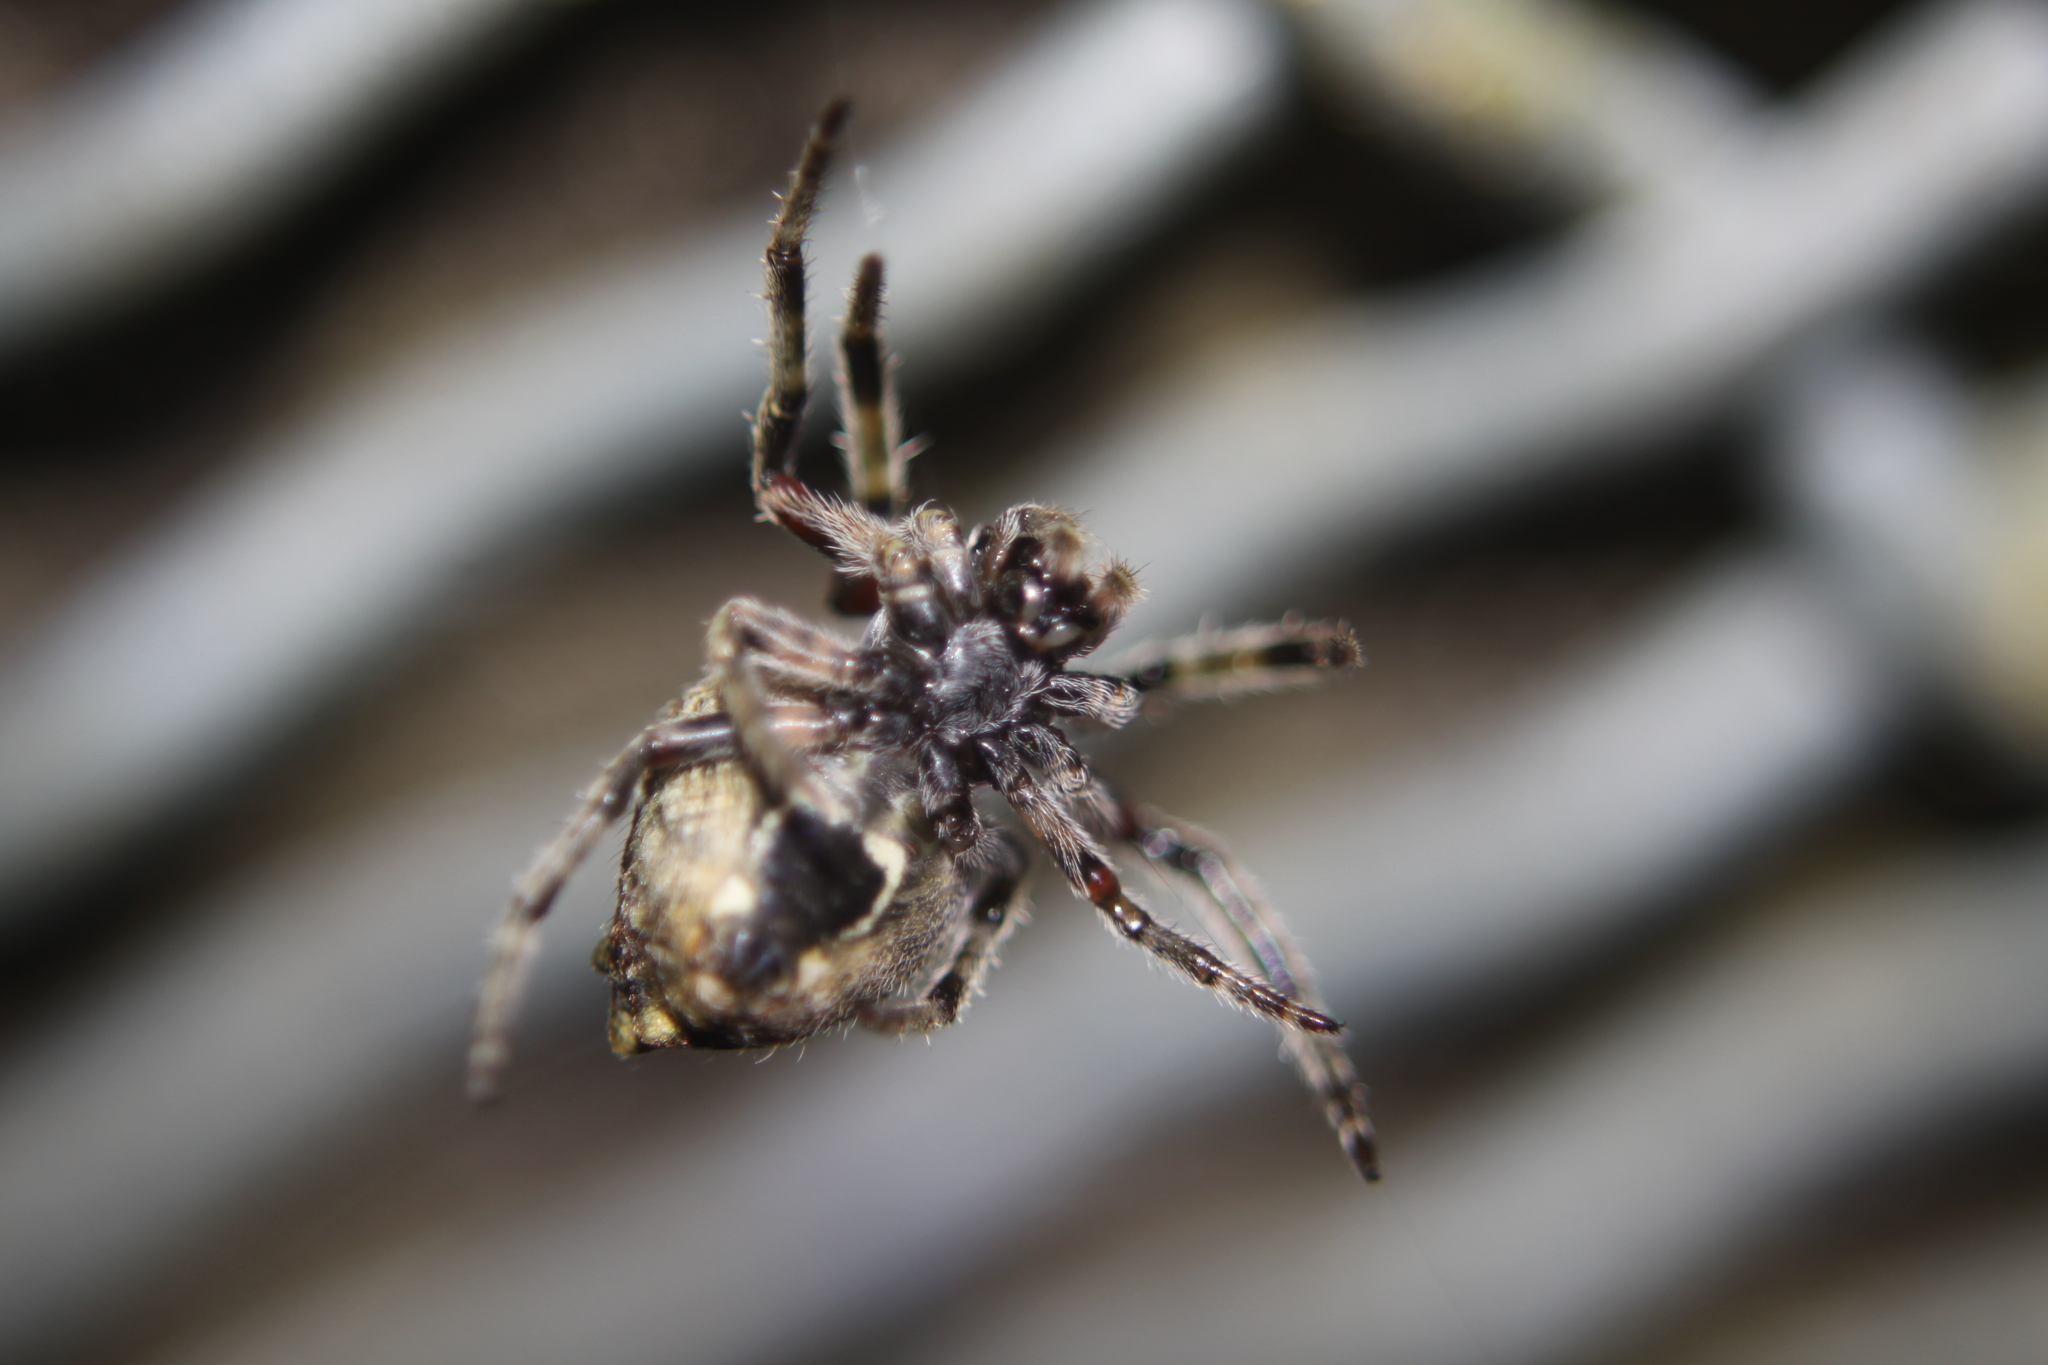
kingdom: Animalia
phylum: Arthropoda
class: Arachnida
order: Araneae
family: Araneidae
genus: Eriophora
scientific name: Eriophora pustulosa
